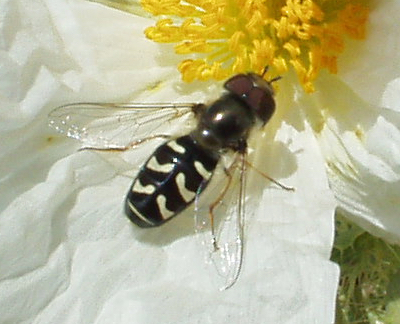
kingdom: Animalia
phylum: Arthropoda
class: Insecta
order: Diptera
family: Syrphidae
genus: Scaeva
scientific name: Scaeva affinis
